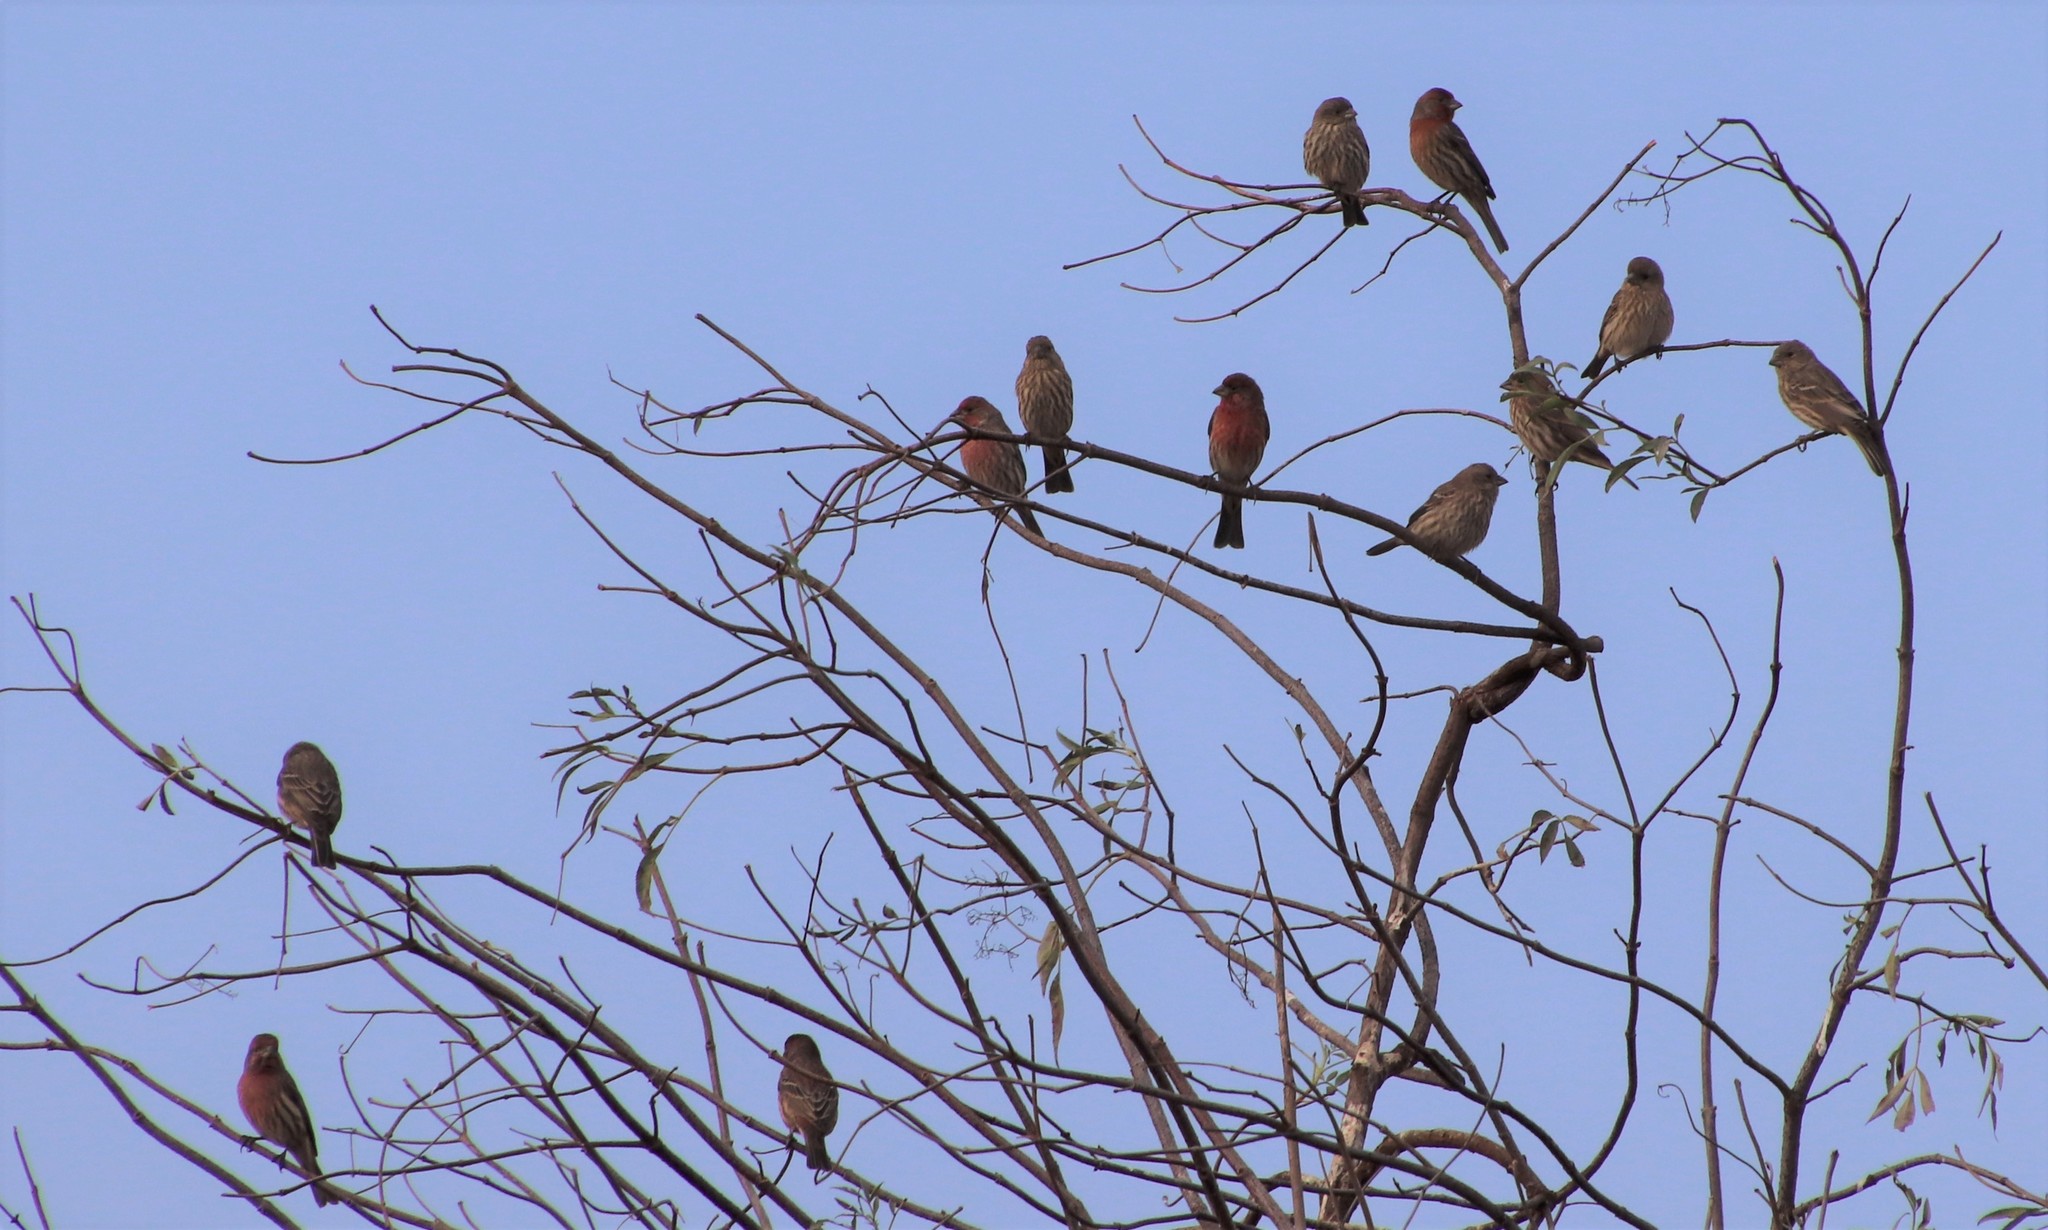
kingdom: Animalia
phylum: Chordata
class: Aves
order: Passeriformes
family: Fringillidae
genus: Haemorhous
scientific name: Haemorhous mexicanus
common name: House finch
